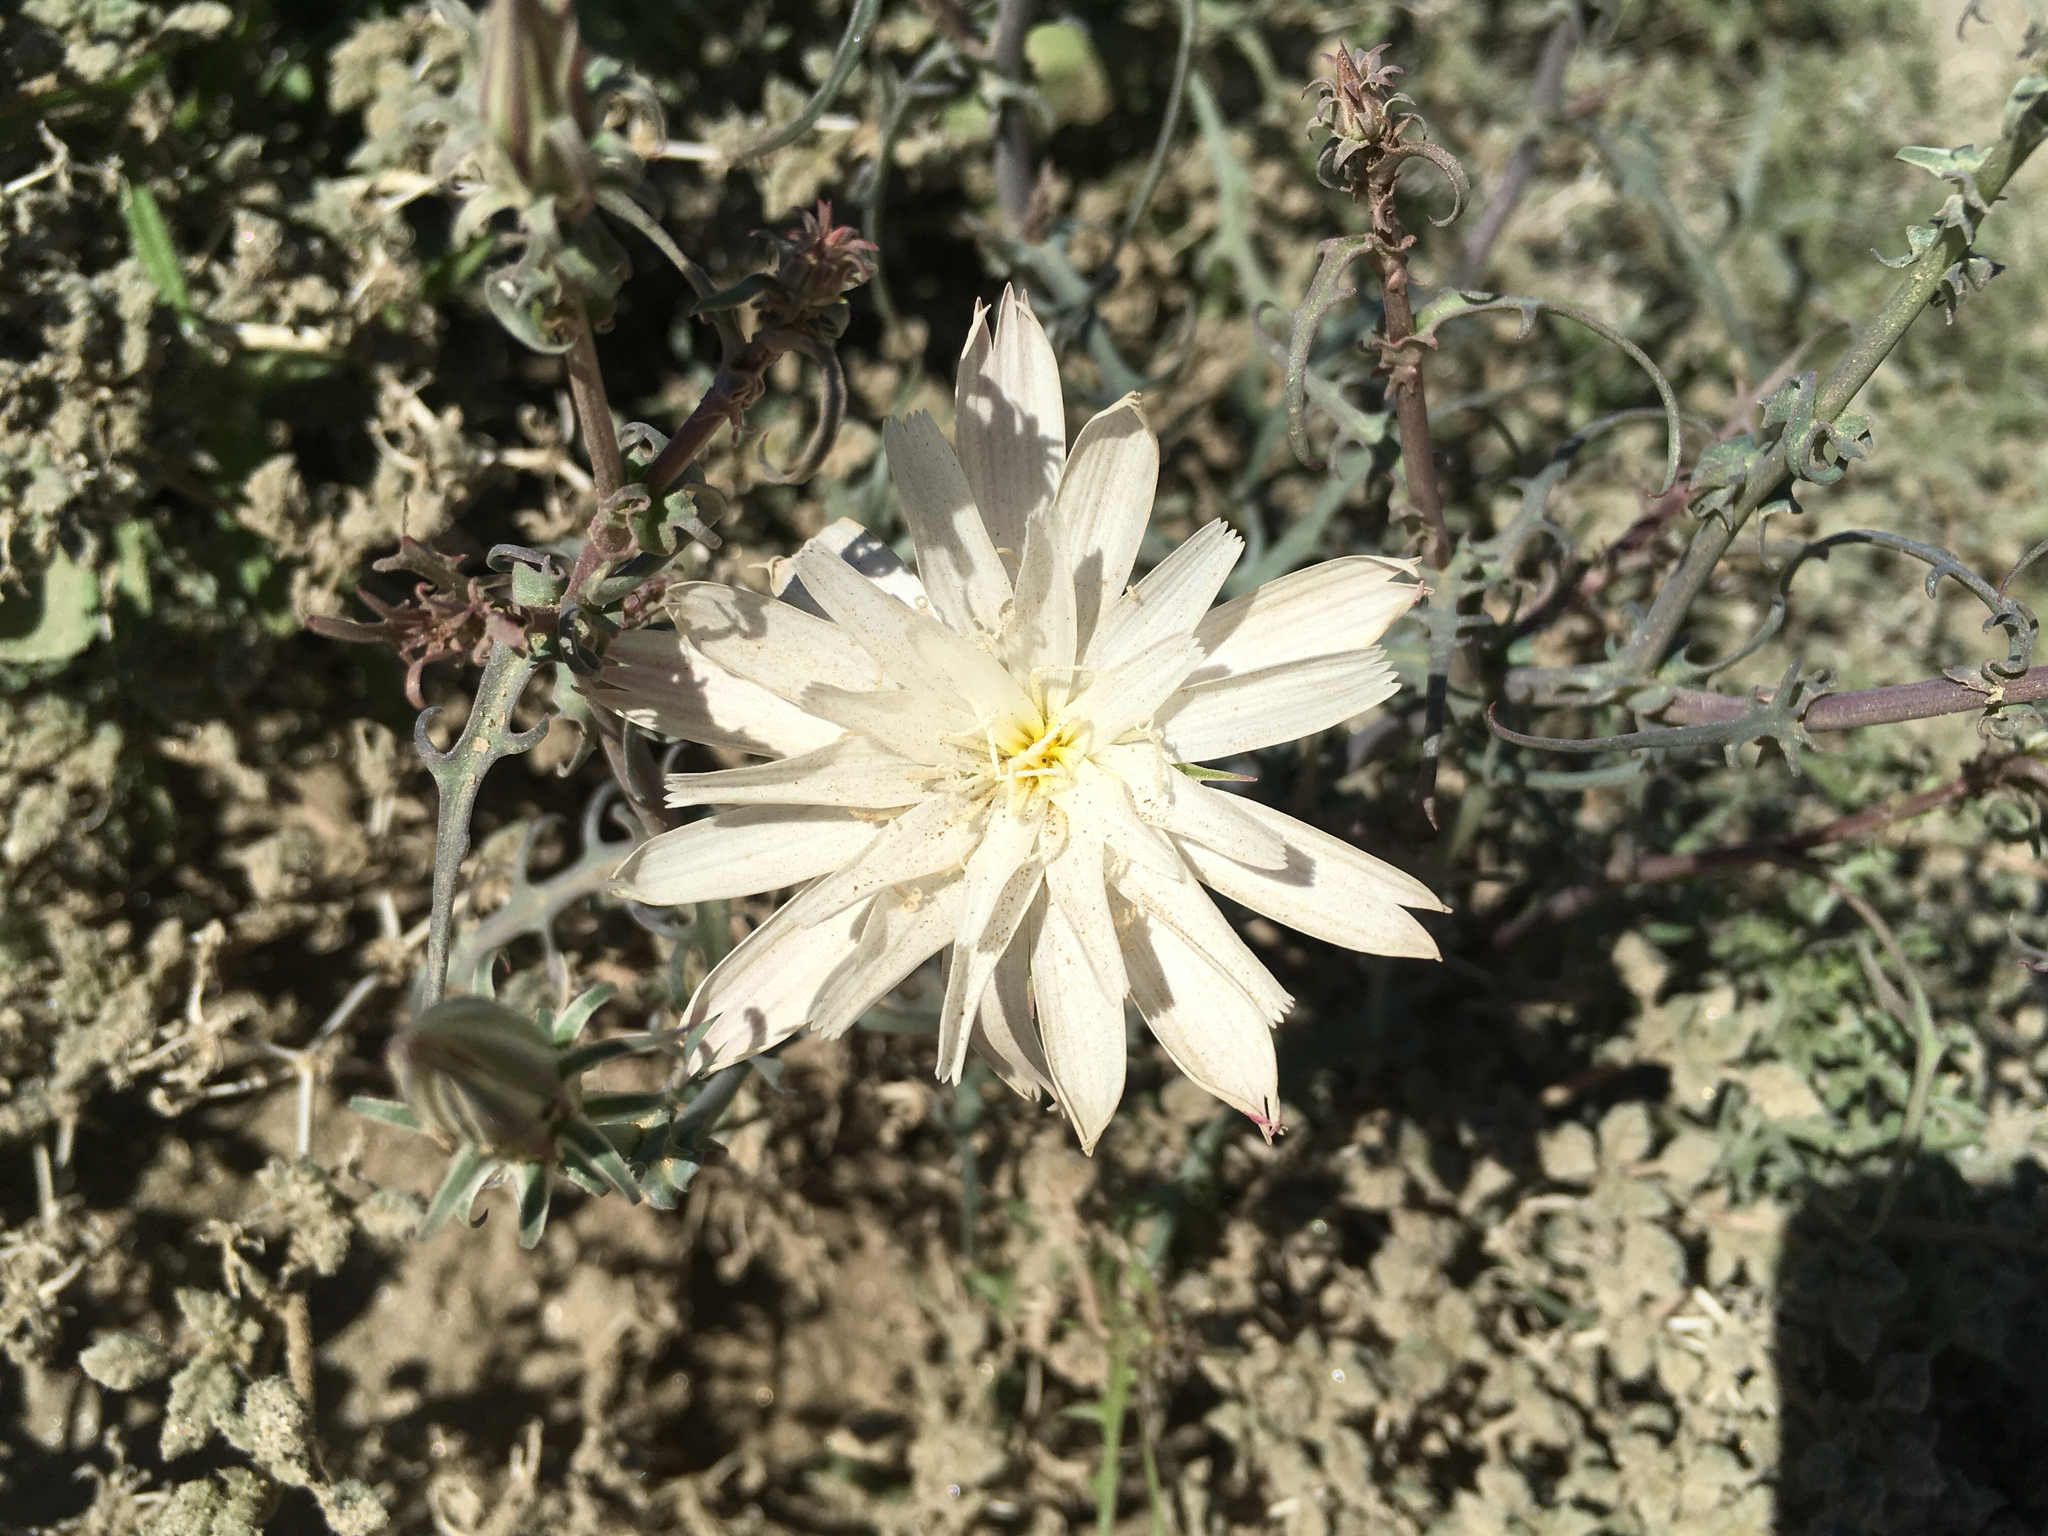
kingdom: Plantae
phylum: Tracheophyta
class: Magnoliopsida
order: Asterales
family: Asteraceae
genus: Rafinesquia
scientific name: Rafinesquia neomexicana
